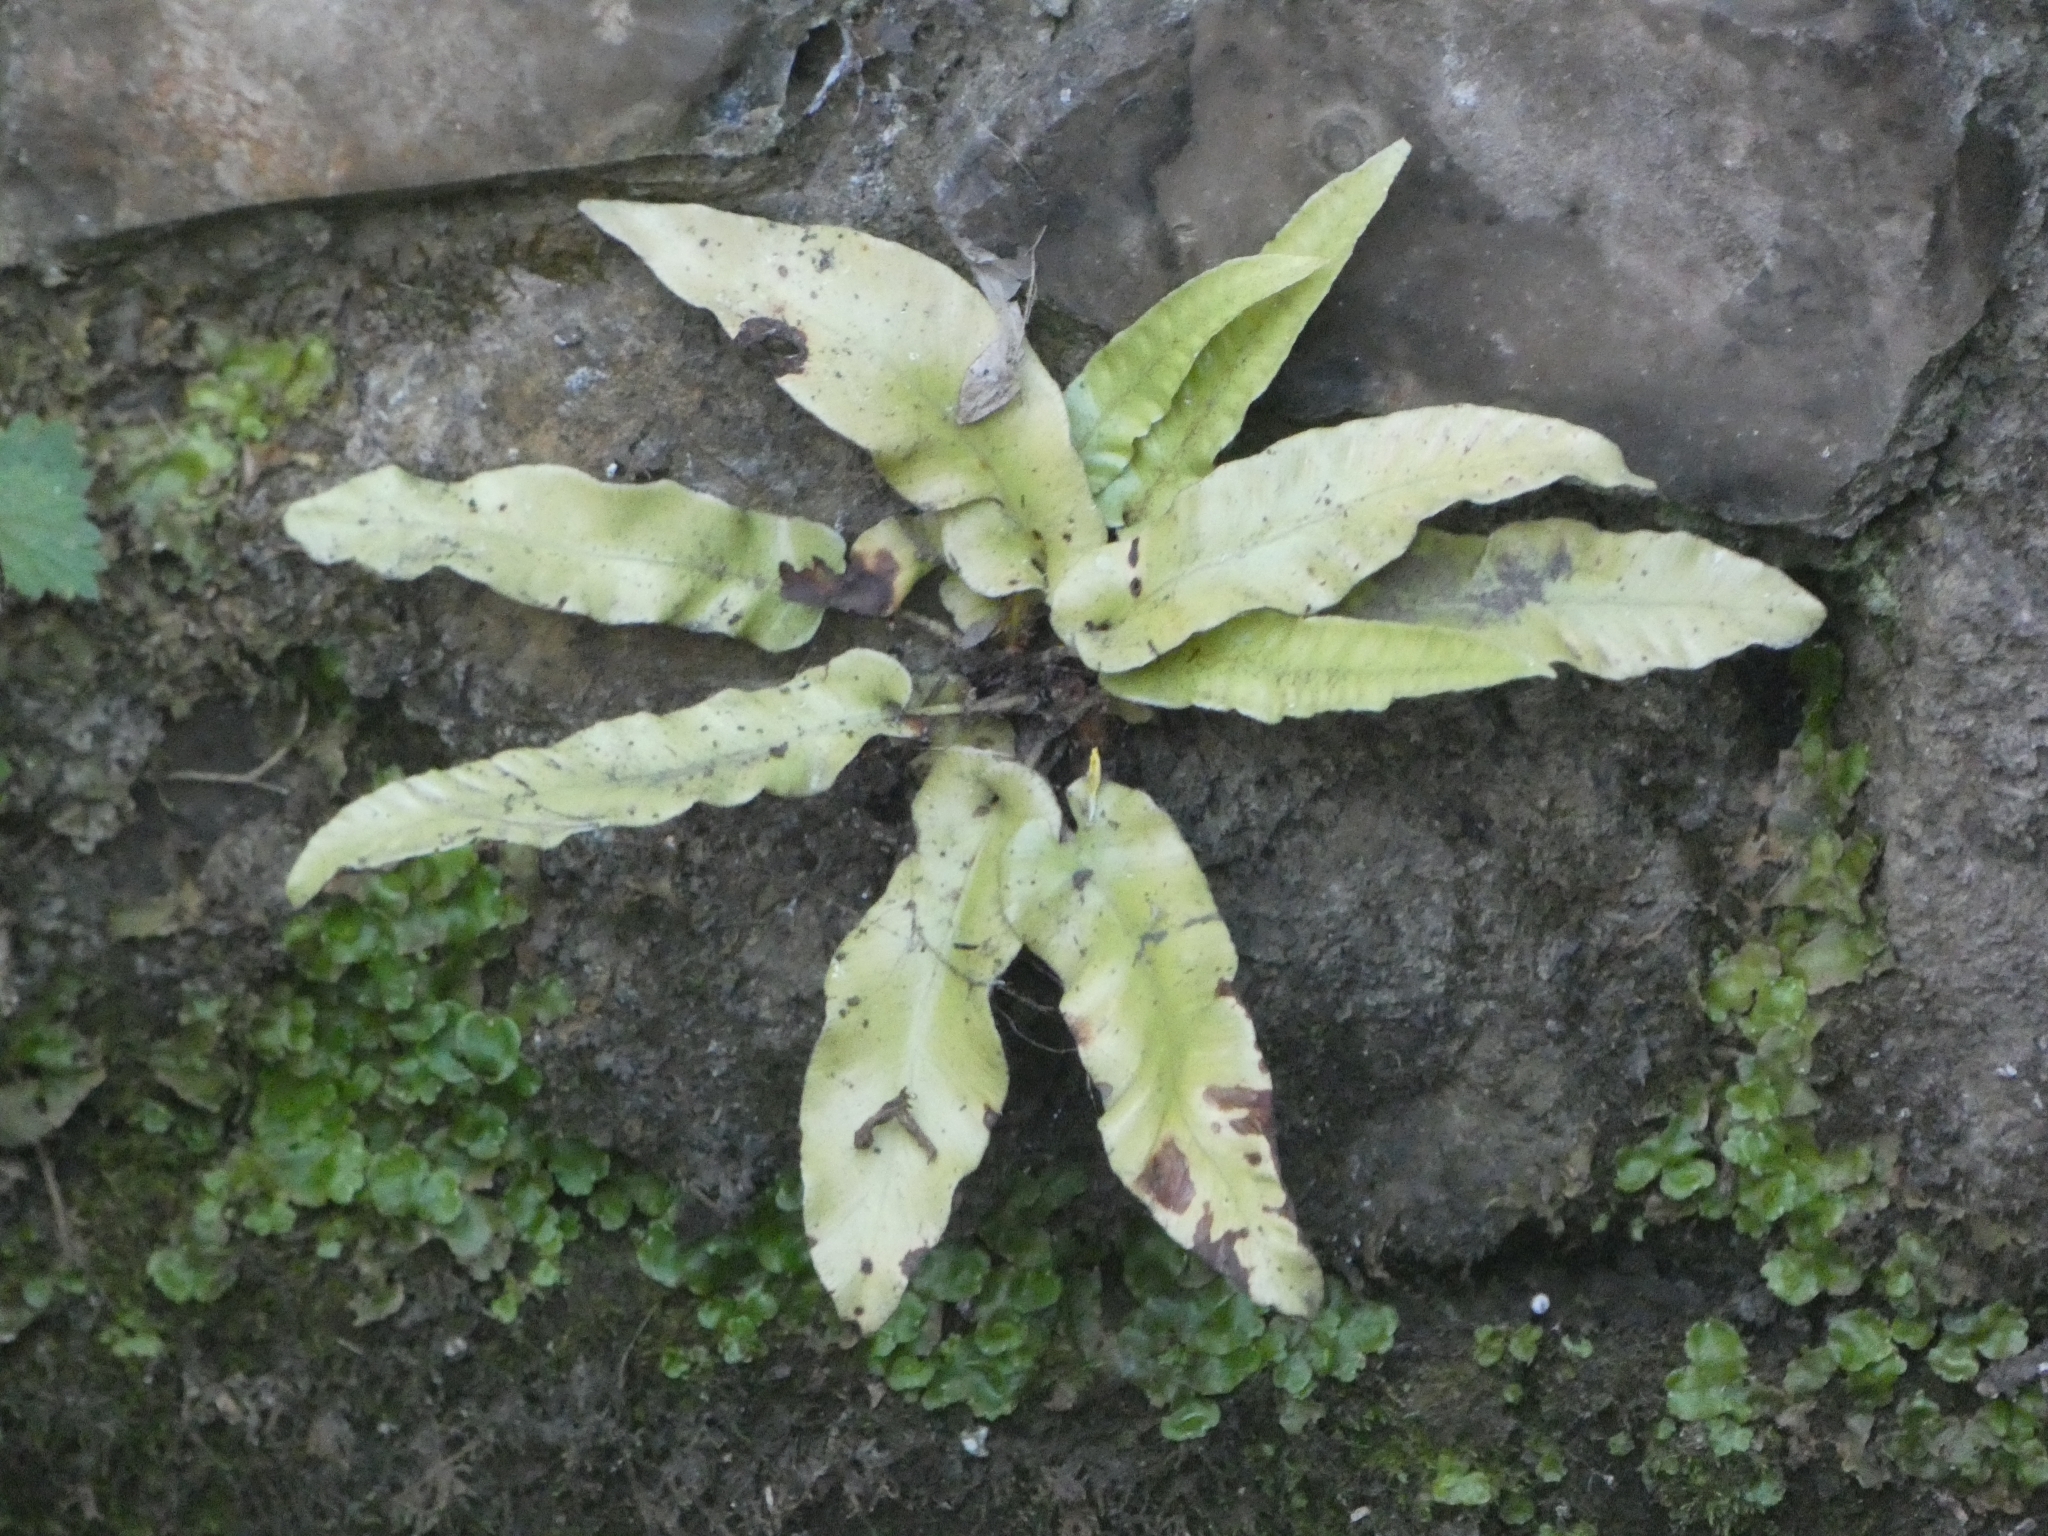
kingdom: Plantae
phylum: Tracheophyta
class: Polypodiopsida
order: Polypodiales
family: Aspleniaceae
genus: Asplenium
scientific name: Asplenium scolopendrium
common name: Hart's-tongue fern
